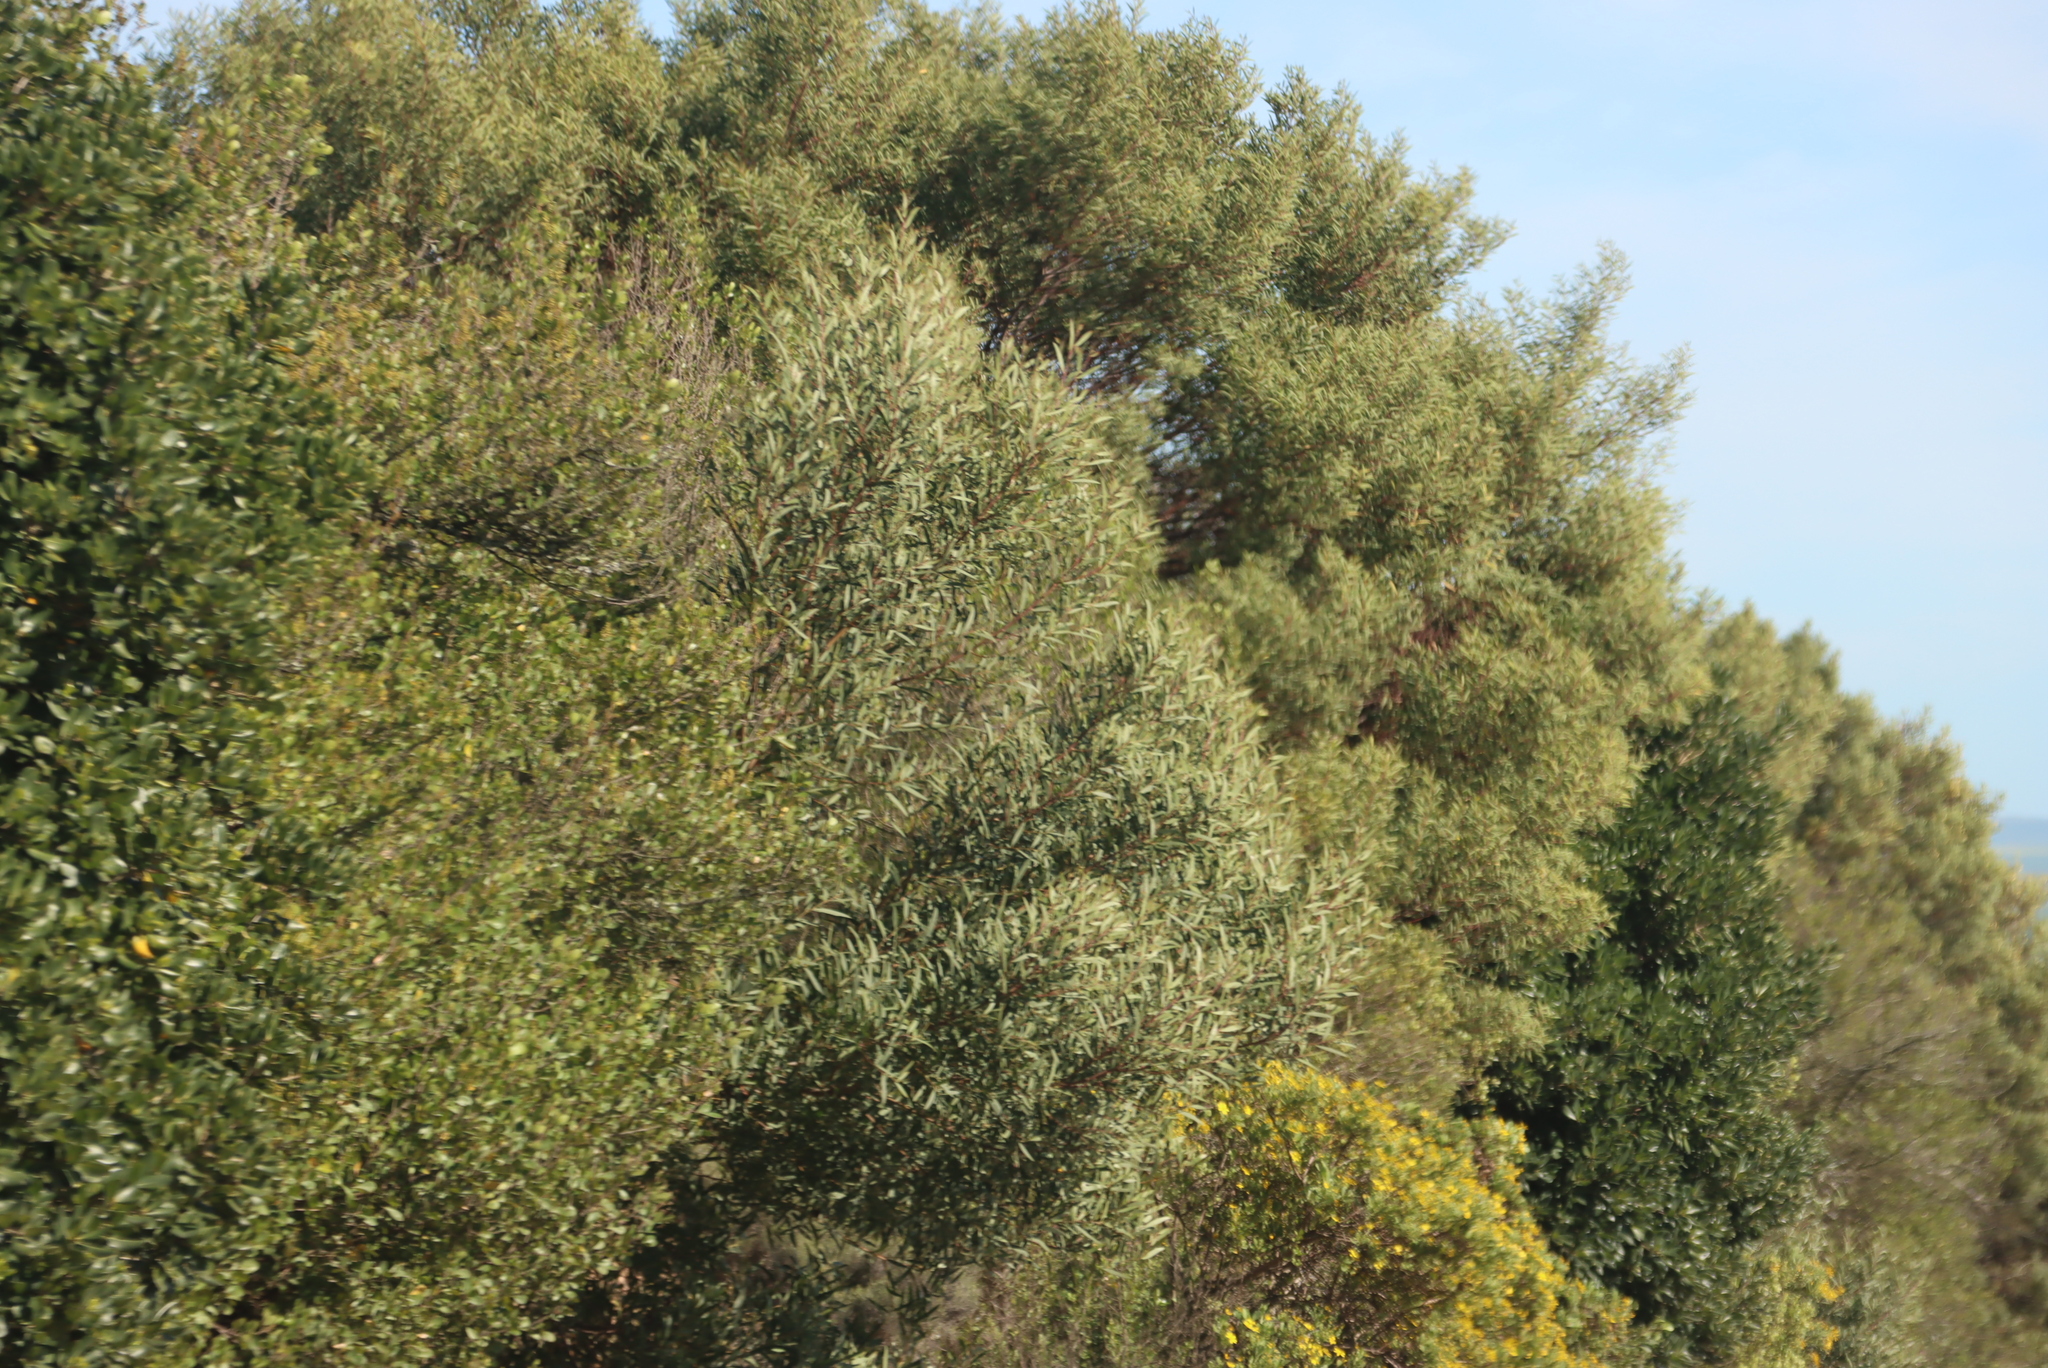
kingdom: Plantae
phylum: Tracheophyta
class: Magnoliopsida
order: Fabales
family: Fabaceae
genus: Acacia
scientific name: Acacia cyclops
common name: Coastal wattle
